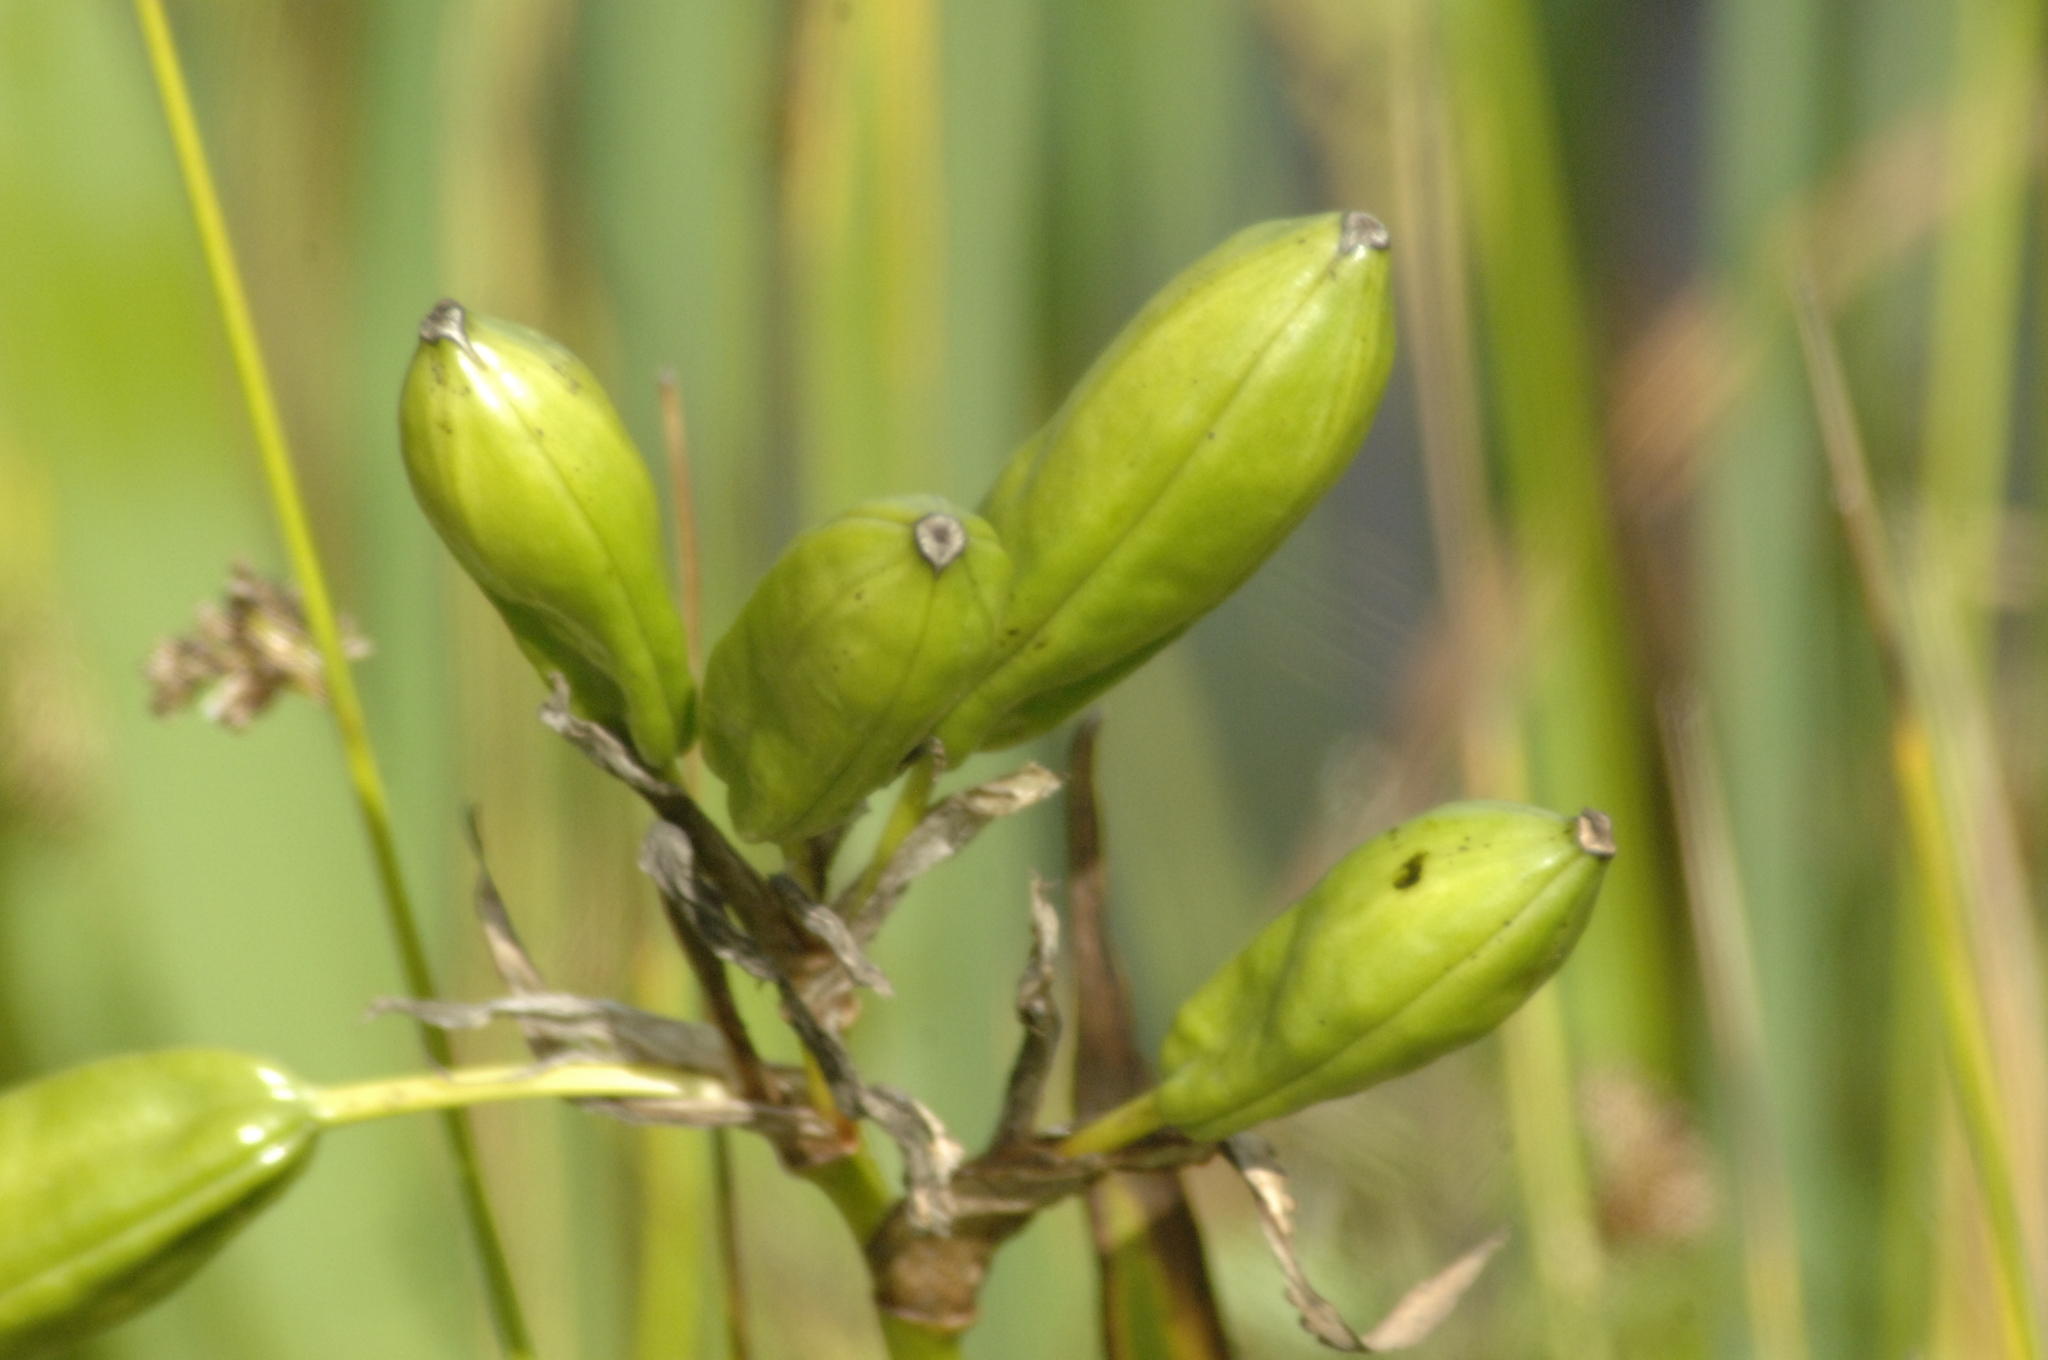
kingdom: Plantae
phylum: Tracheophyta
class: Liliopsida
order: Asparagales
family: Iridaceae
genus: Iris
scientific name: Iris pseudacorus
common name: Yellow flag
